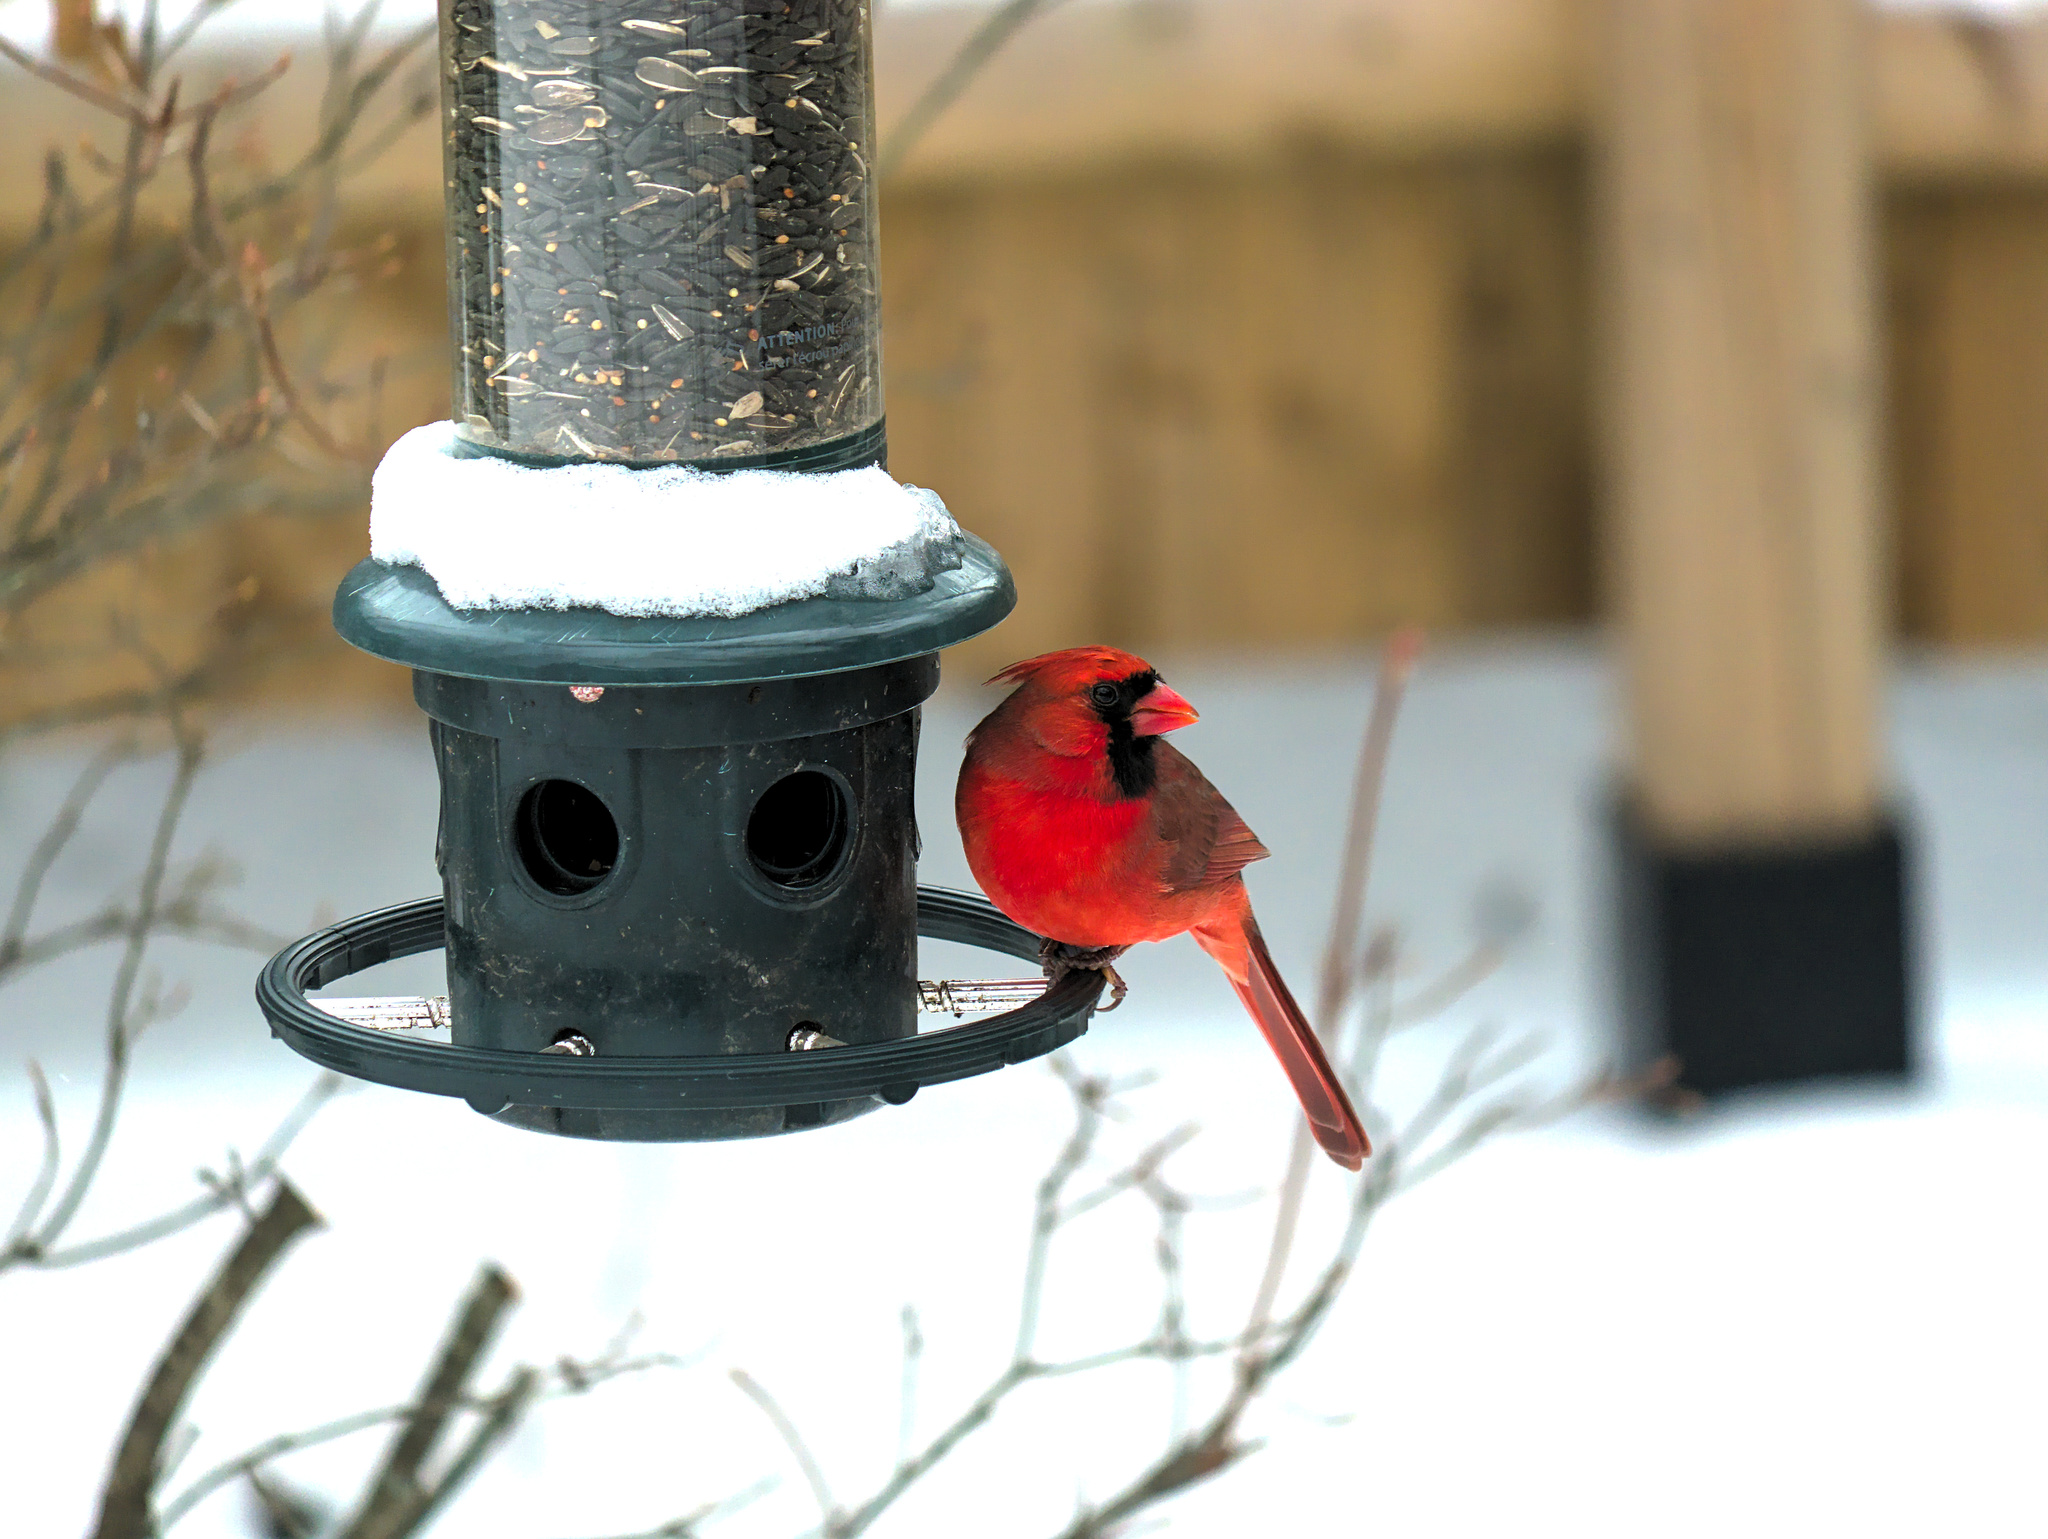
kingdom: Animalia
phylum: Chordata
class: Aves
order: Passeriformes
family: Cardinalidae
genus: Cardinalis
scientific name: Cardinalis cardinalis
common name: Northern cardinal
